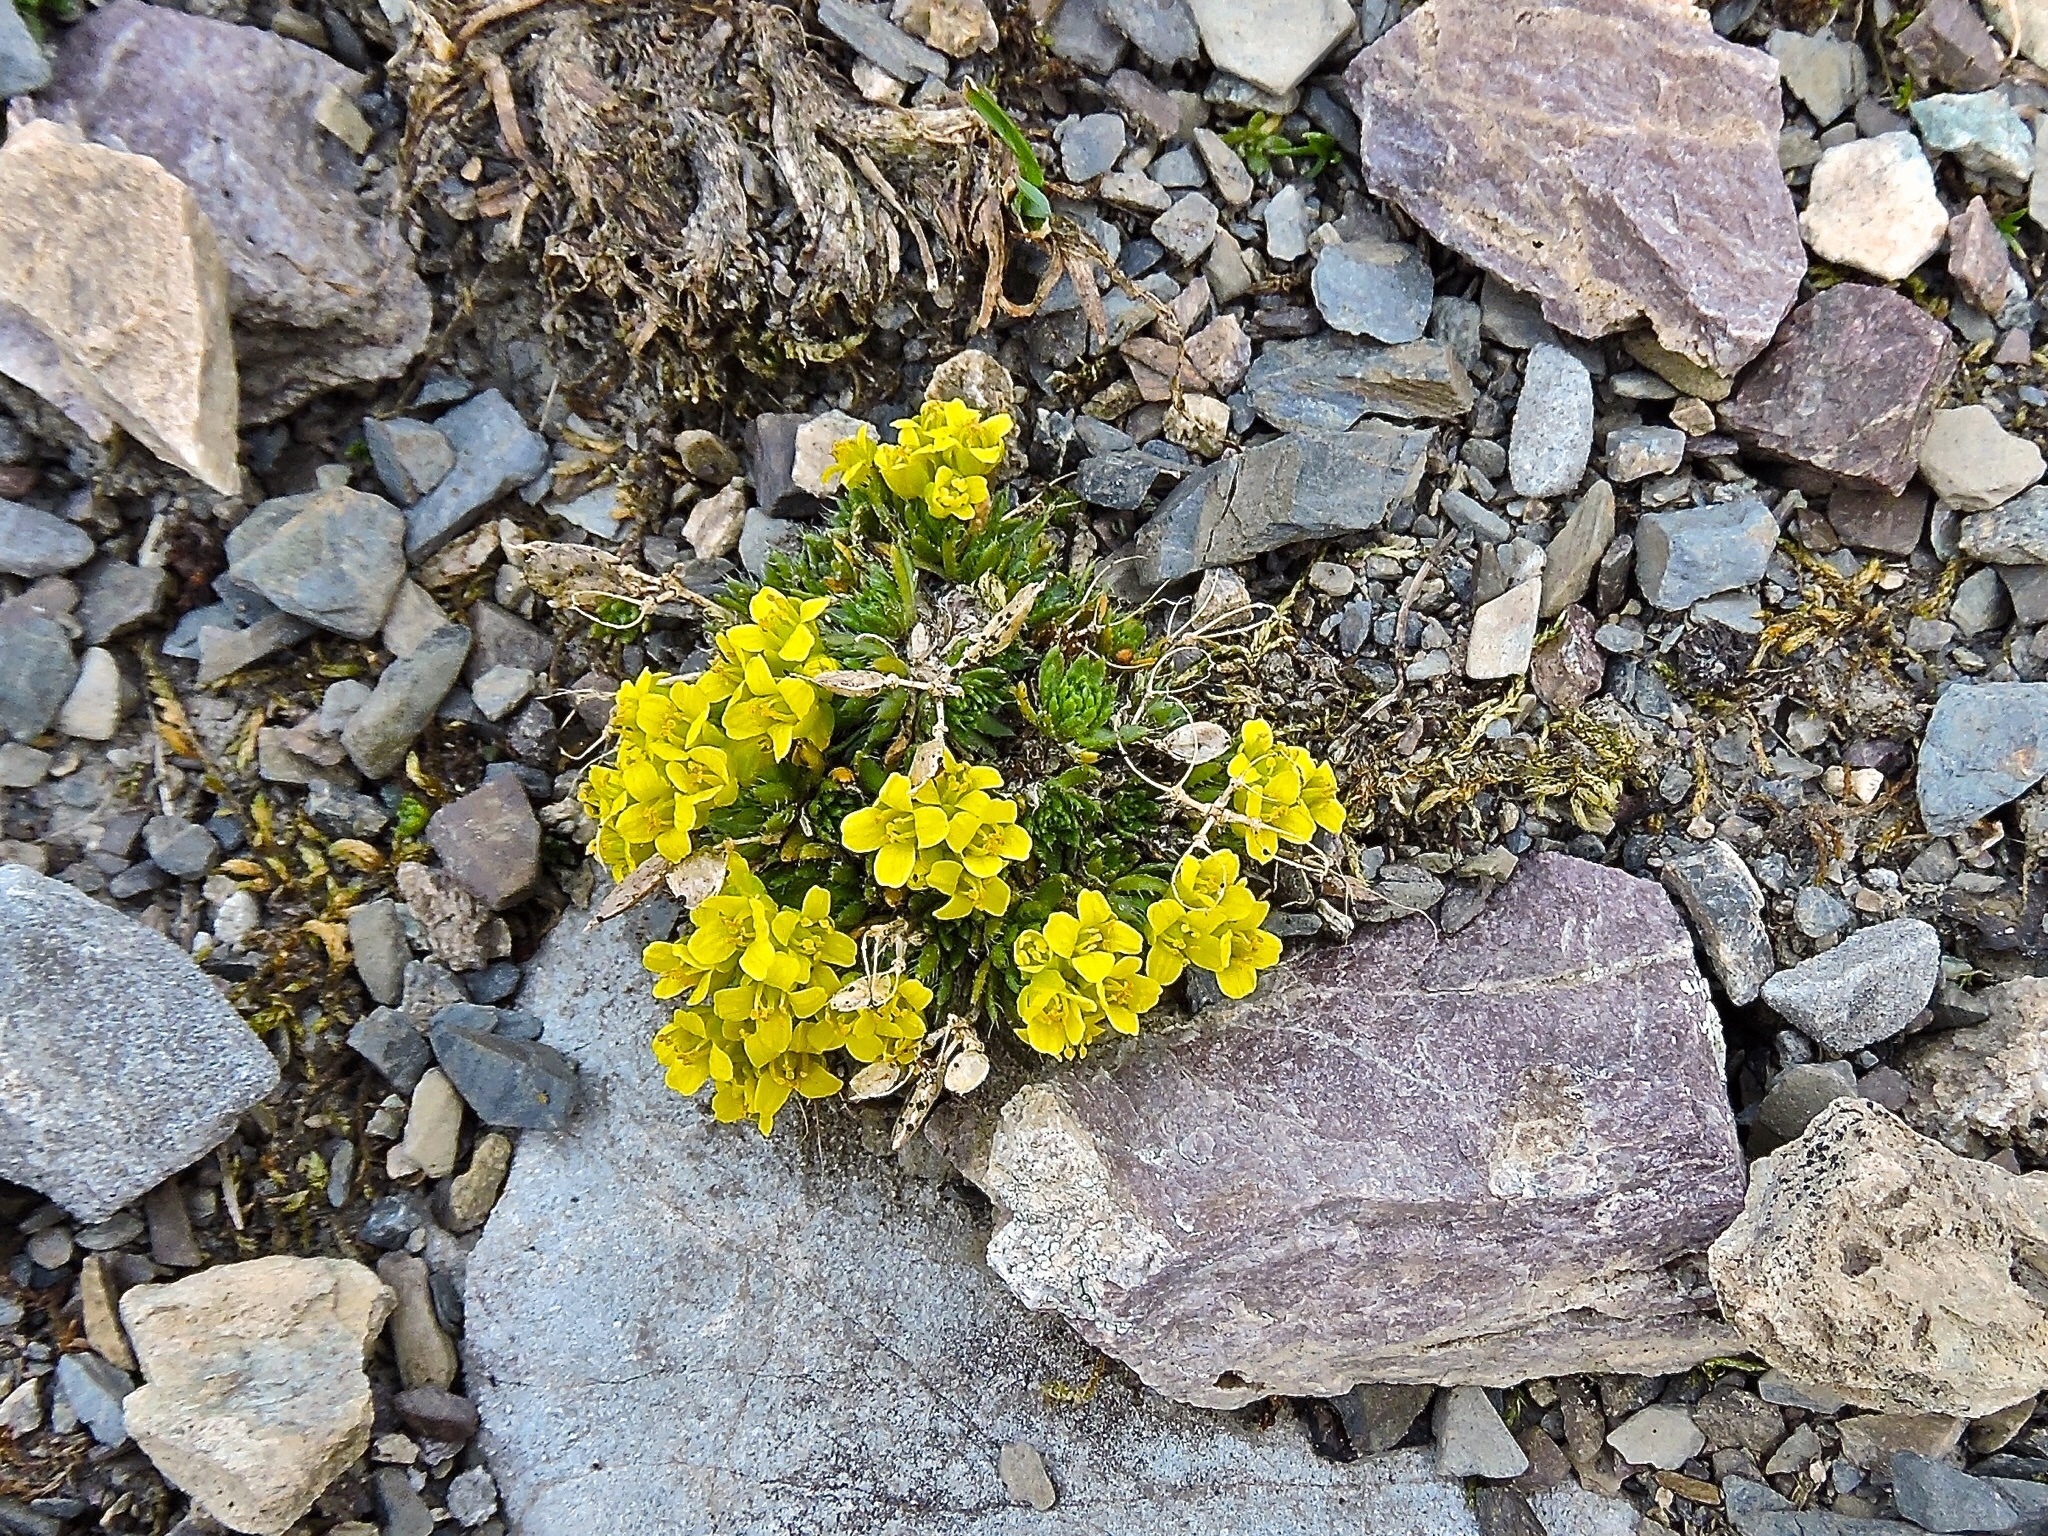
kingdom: Plantae
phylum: Tracheophyta
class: Magnoliopsida
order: Brassicales
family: Brassicaceae
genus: Draba
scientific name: Draba hoppeana
